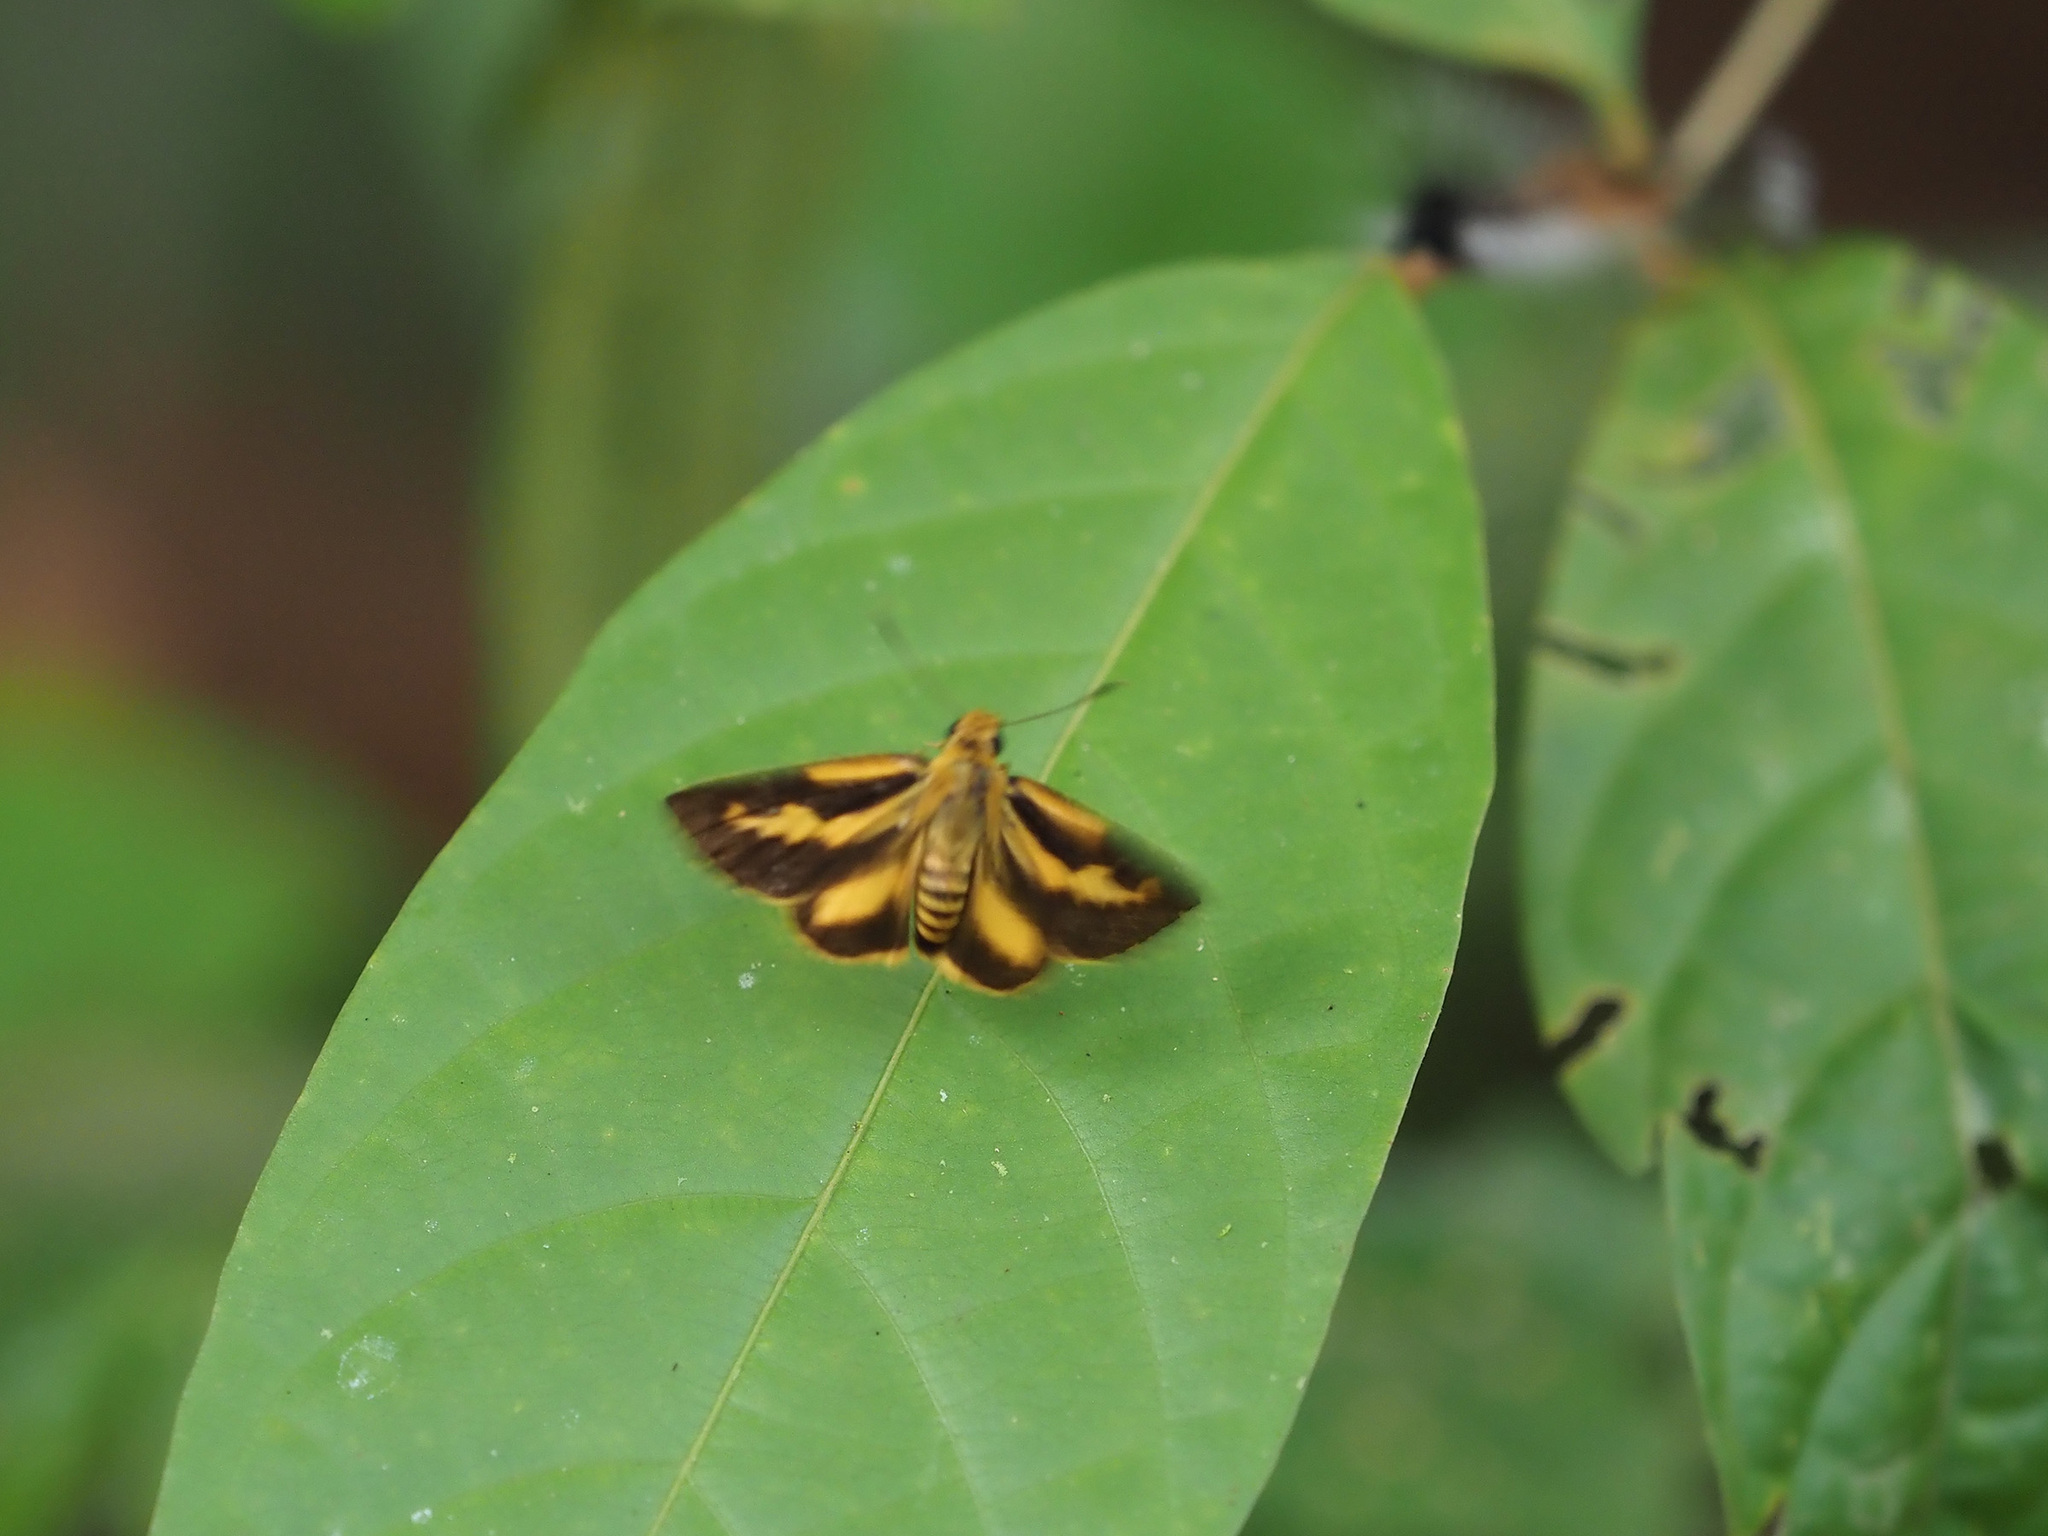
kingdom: Animalia
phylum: Arthropoda
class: Insecta
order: Lepidoptera
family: Hesperiidae
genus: Cupitha
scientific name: Cupitha purreea
